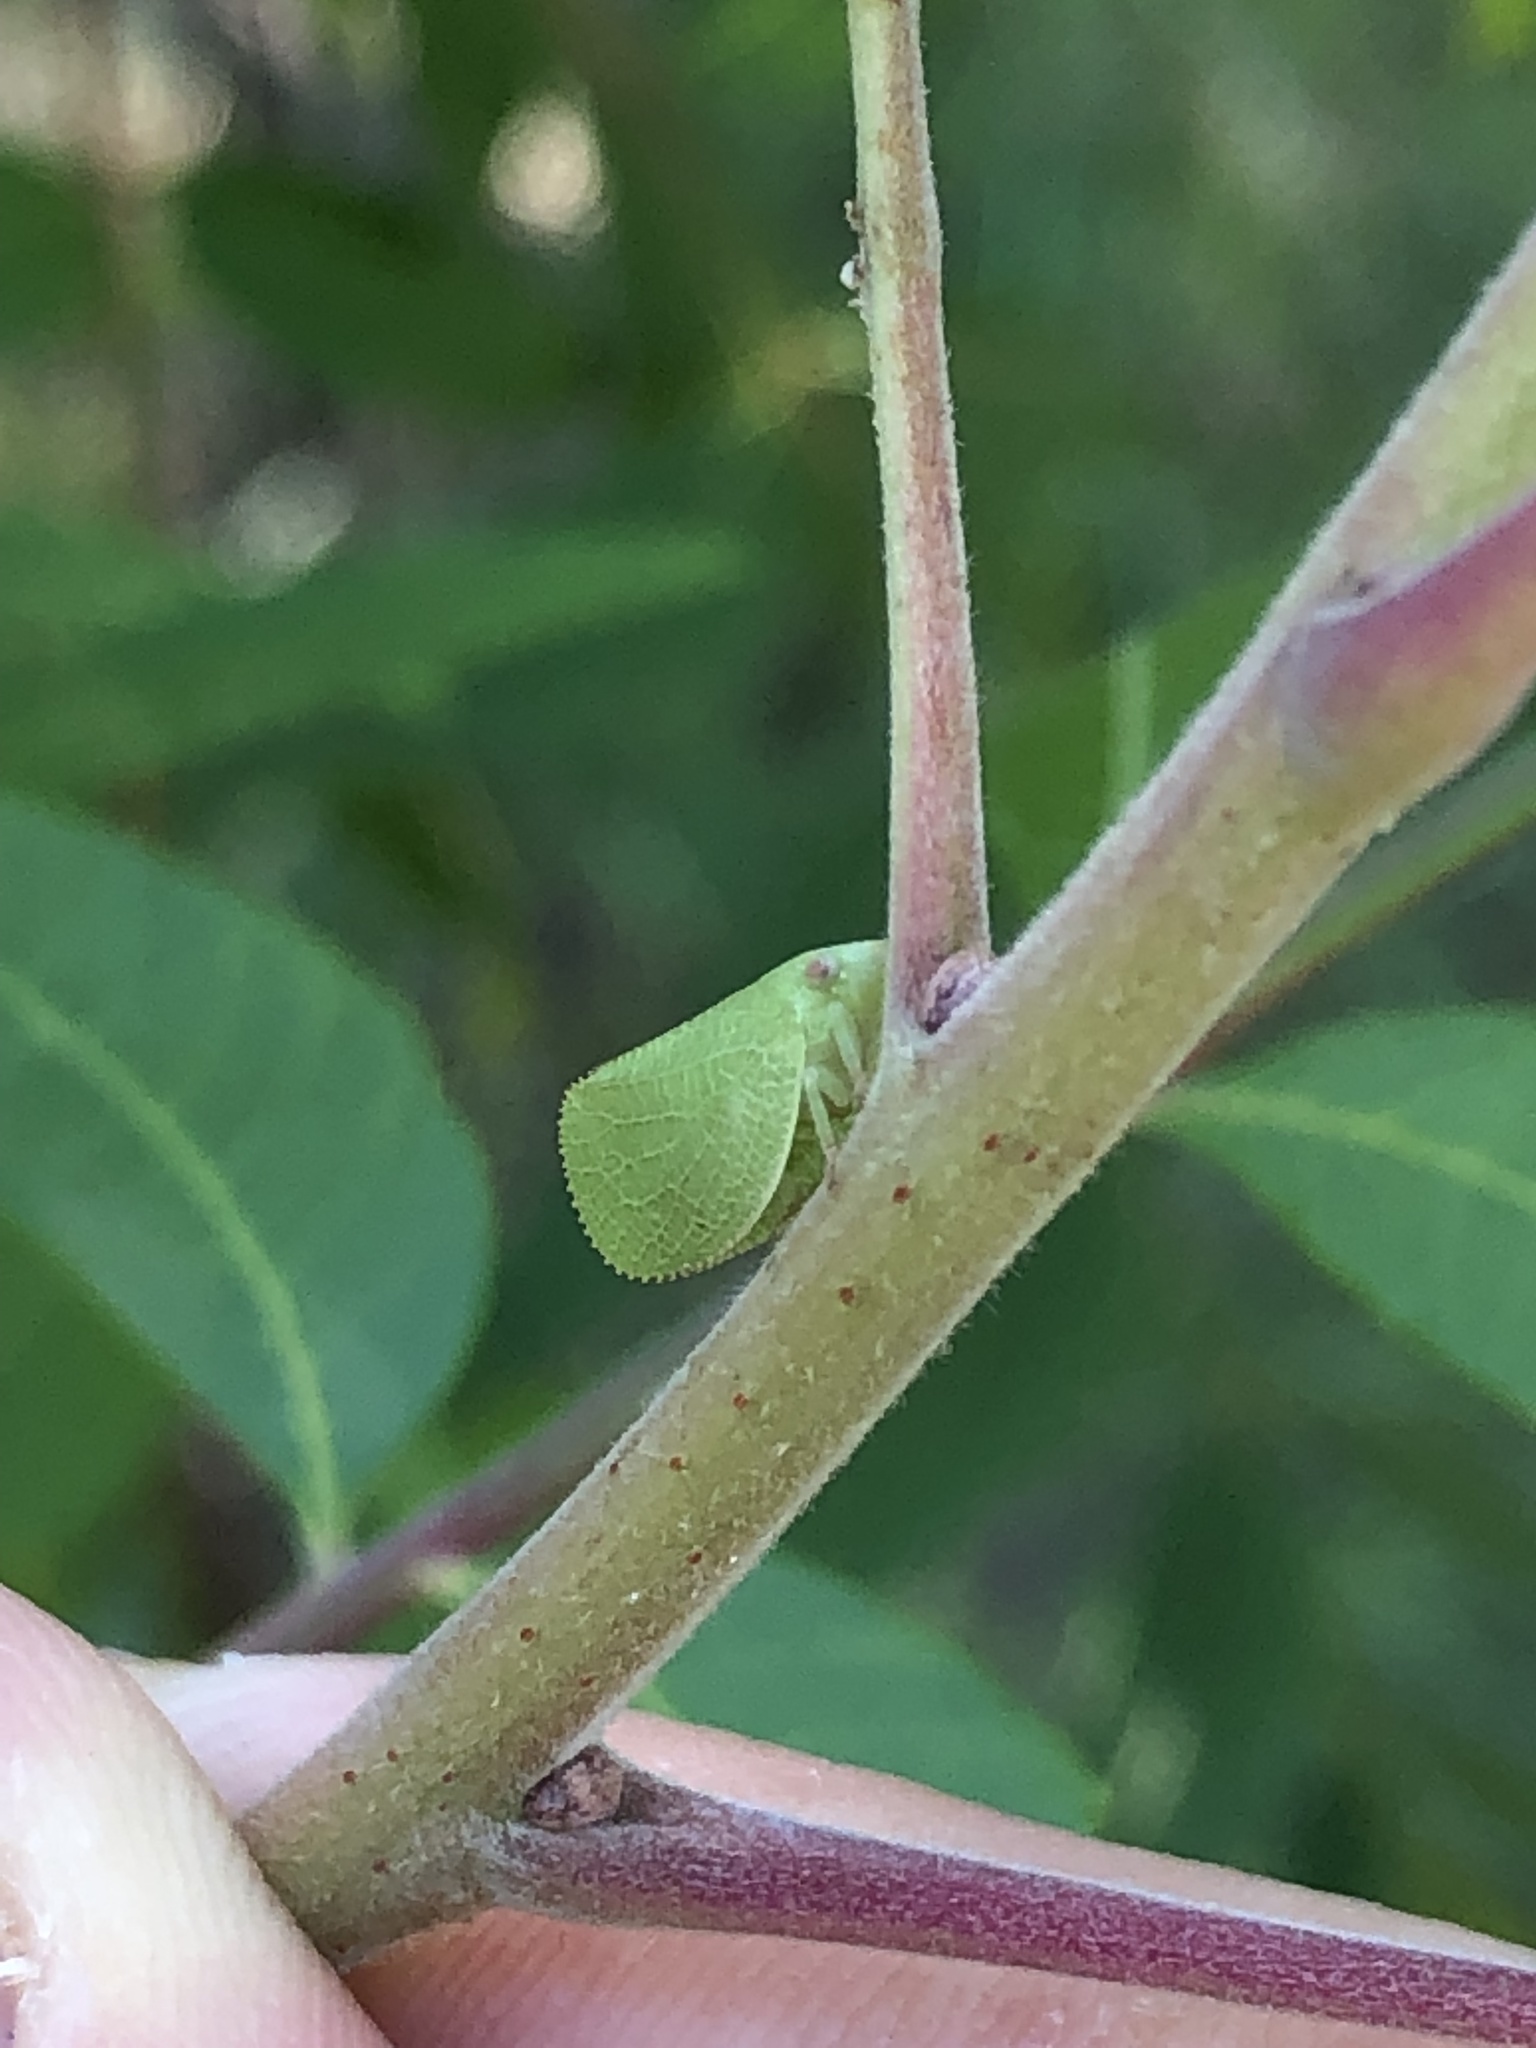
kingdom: Animalia
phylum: Arthropoda
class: Insecta
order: Hemiptera
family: Acanaloniidae
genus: Acanalonia
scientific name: Acanalonia conica
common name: Green cone-headed planthopper
